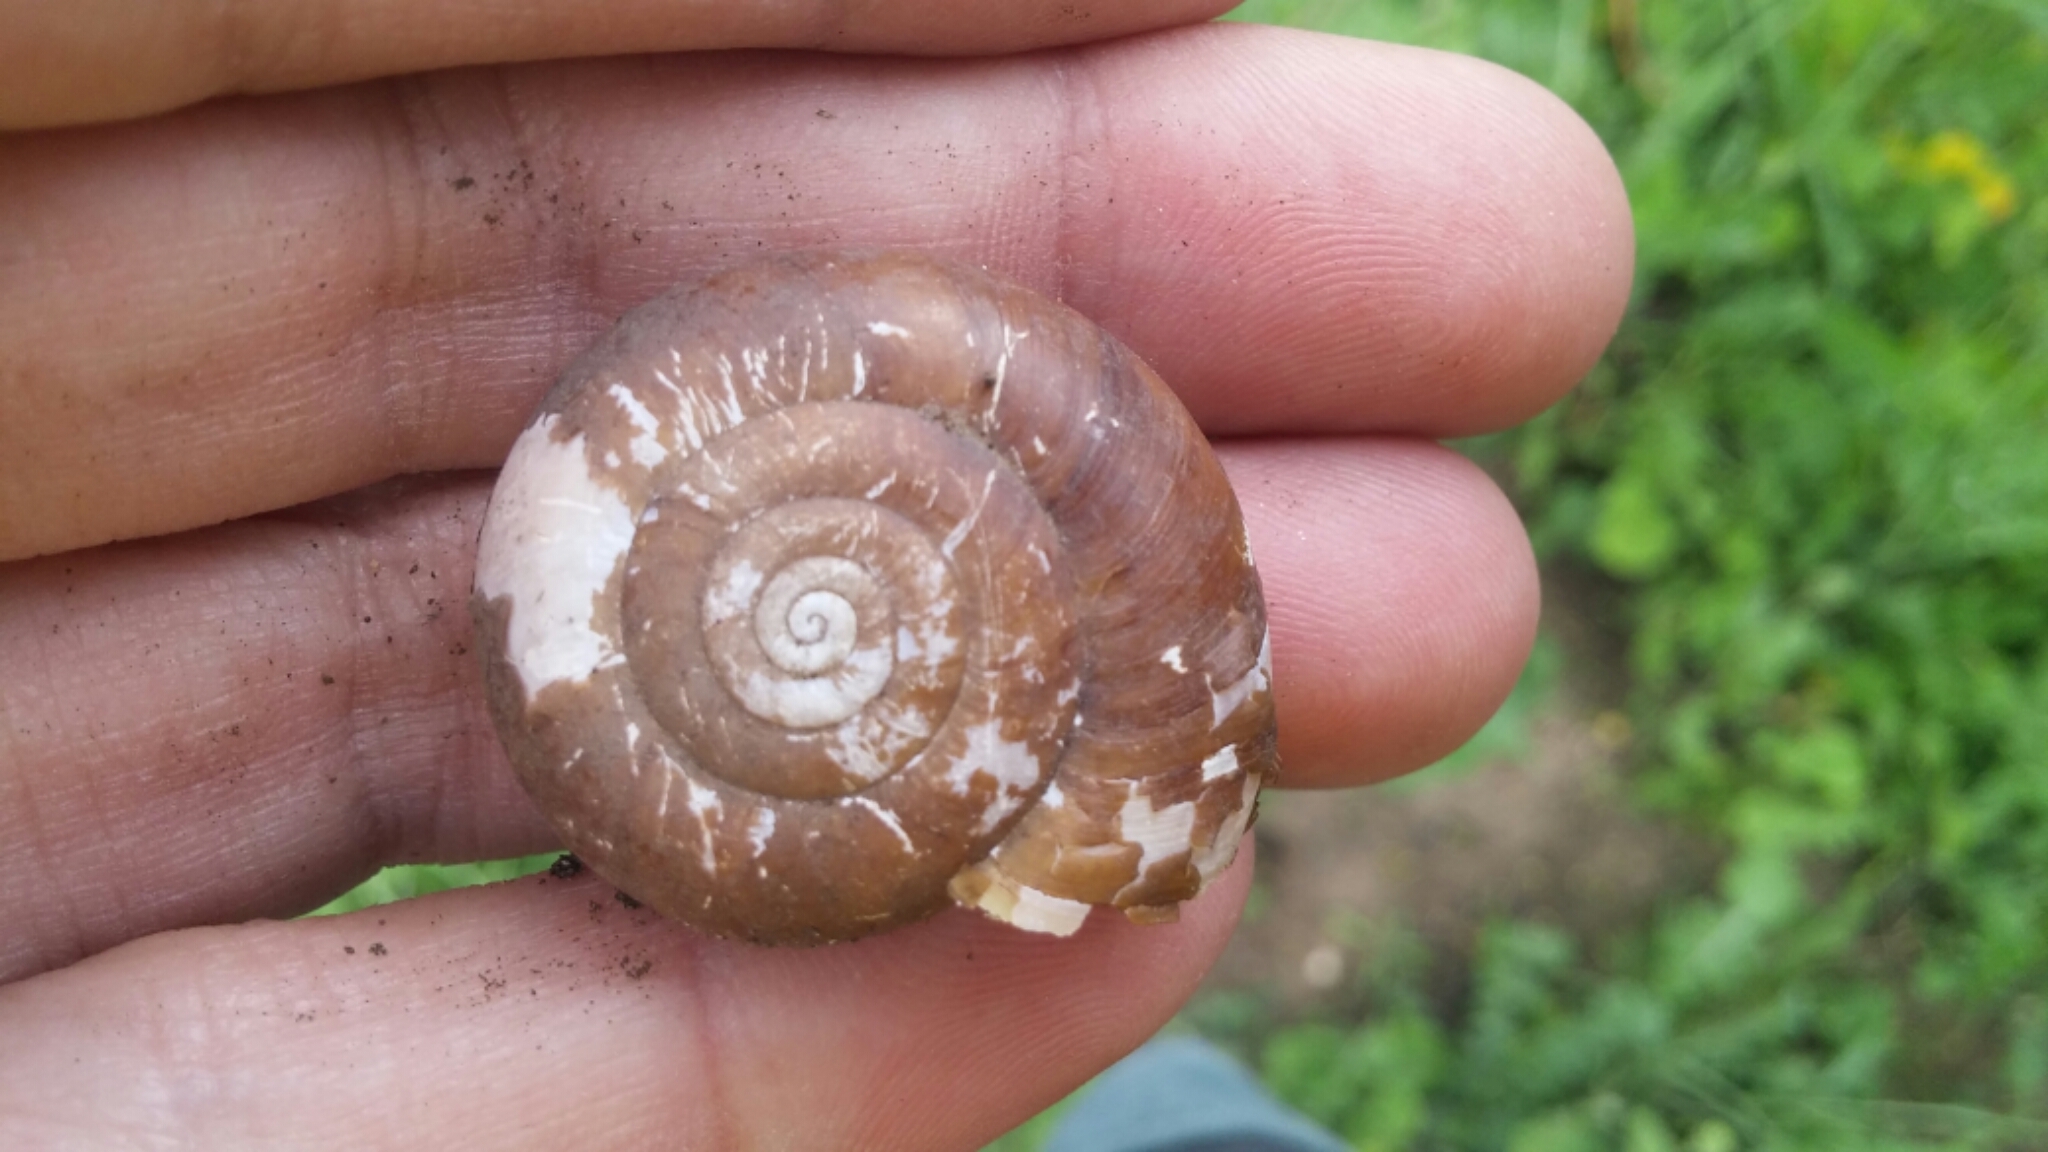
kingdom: Animalia
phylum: Mollusca
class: Gastropoda
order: Stylommatophora
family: Megomphicidae
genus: Glyptostoma
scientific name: Glyptostoma newberryanum
